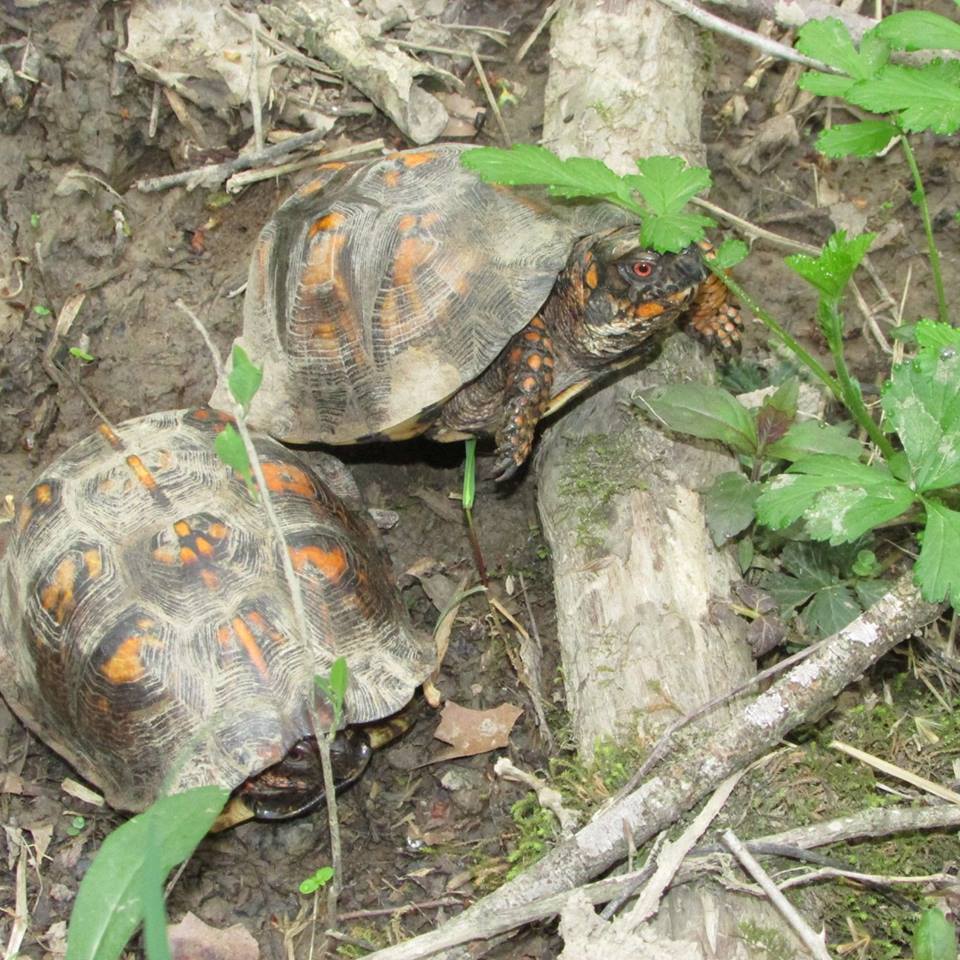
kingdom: Animalia
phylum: Chordata
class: Testudines
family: Emydidae
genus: Terrapene
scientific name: Terrapene carolina
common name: Common box turtle
